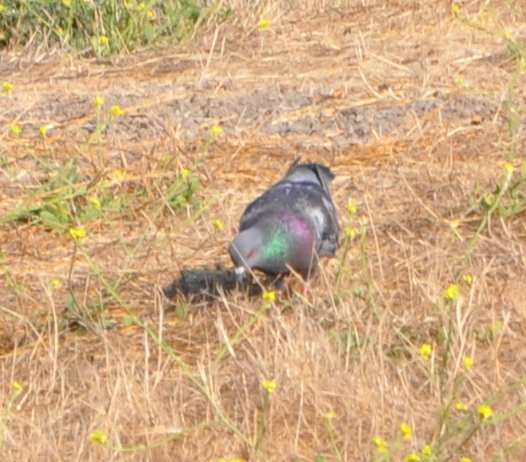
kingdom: Animalia
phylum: Chordata
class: Aves
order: Columbiformes
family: Columbidae
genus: Columba
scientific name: Columba livia
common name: Rock pigeon
